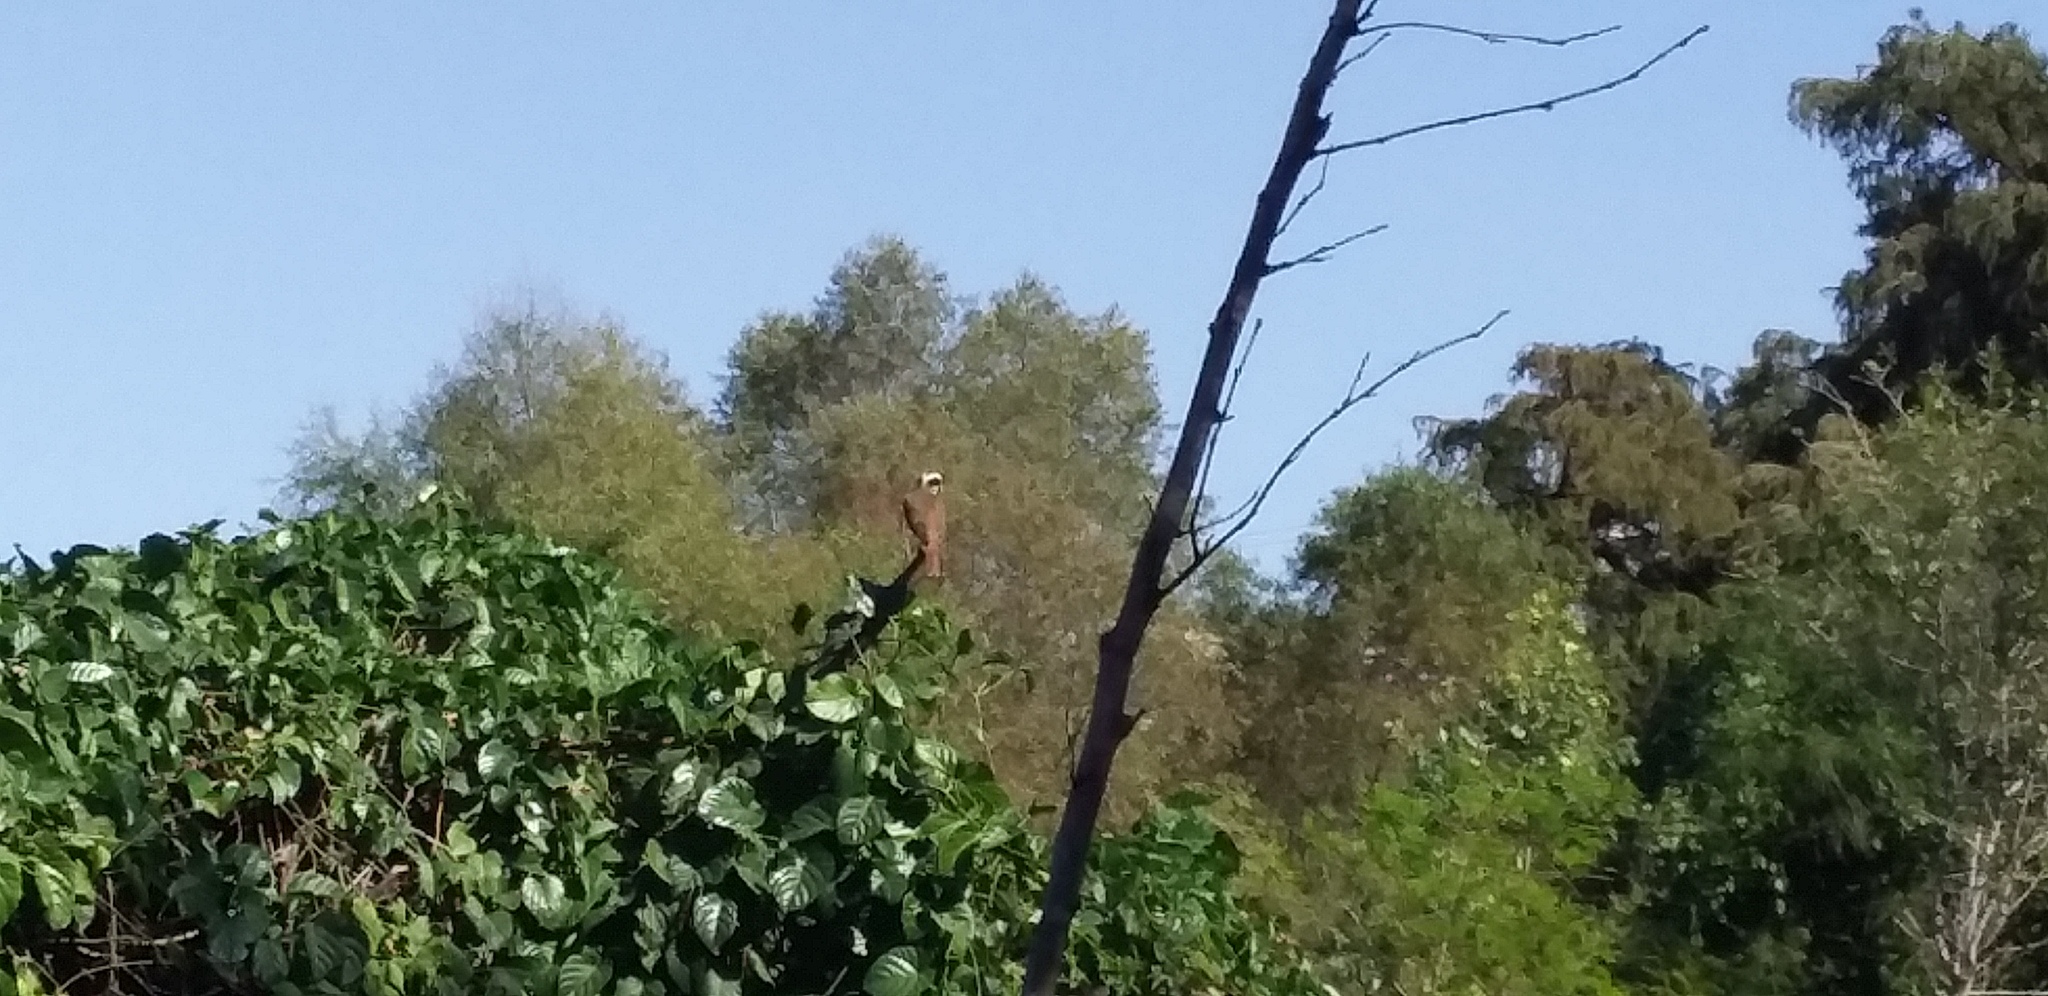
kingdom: Animalia
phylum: Chordata
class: Aves
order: Passeriformes
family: Tyrannidae
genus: Pitangus
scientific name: Pitangus sulphuratus
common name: Great kiskadee
